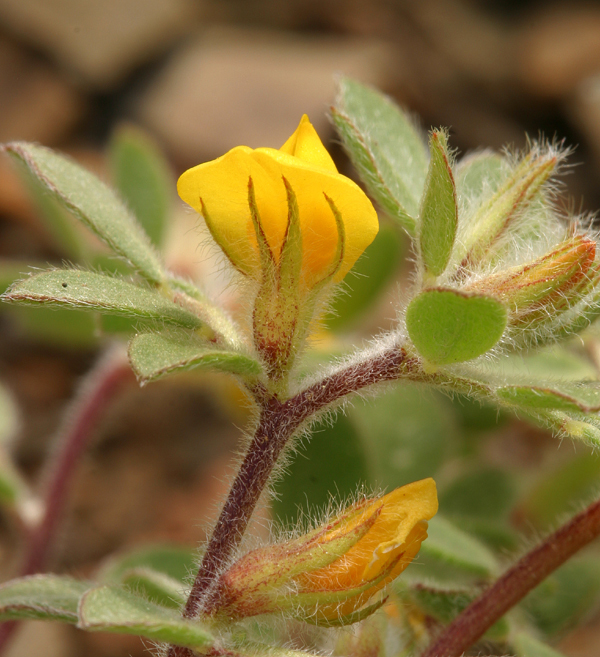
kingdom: Plantae
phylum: Tracheophyta
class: Magnoliopsida
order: Fabales
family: Fabaceae
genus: Acmispon
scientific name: Acmispon brachycarpus
